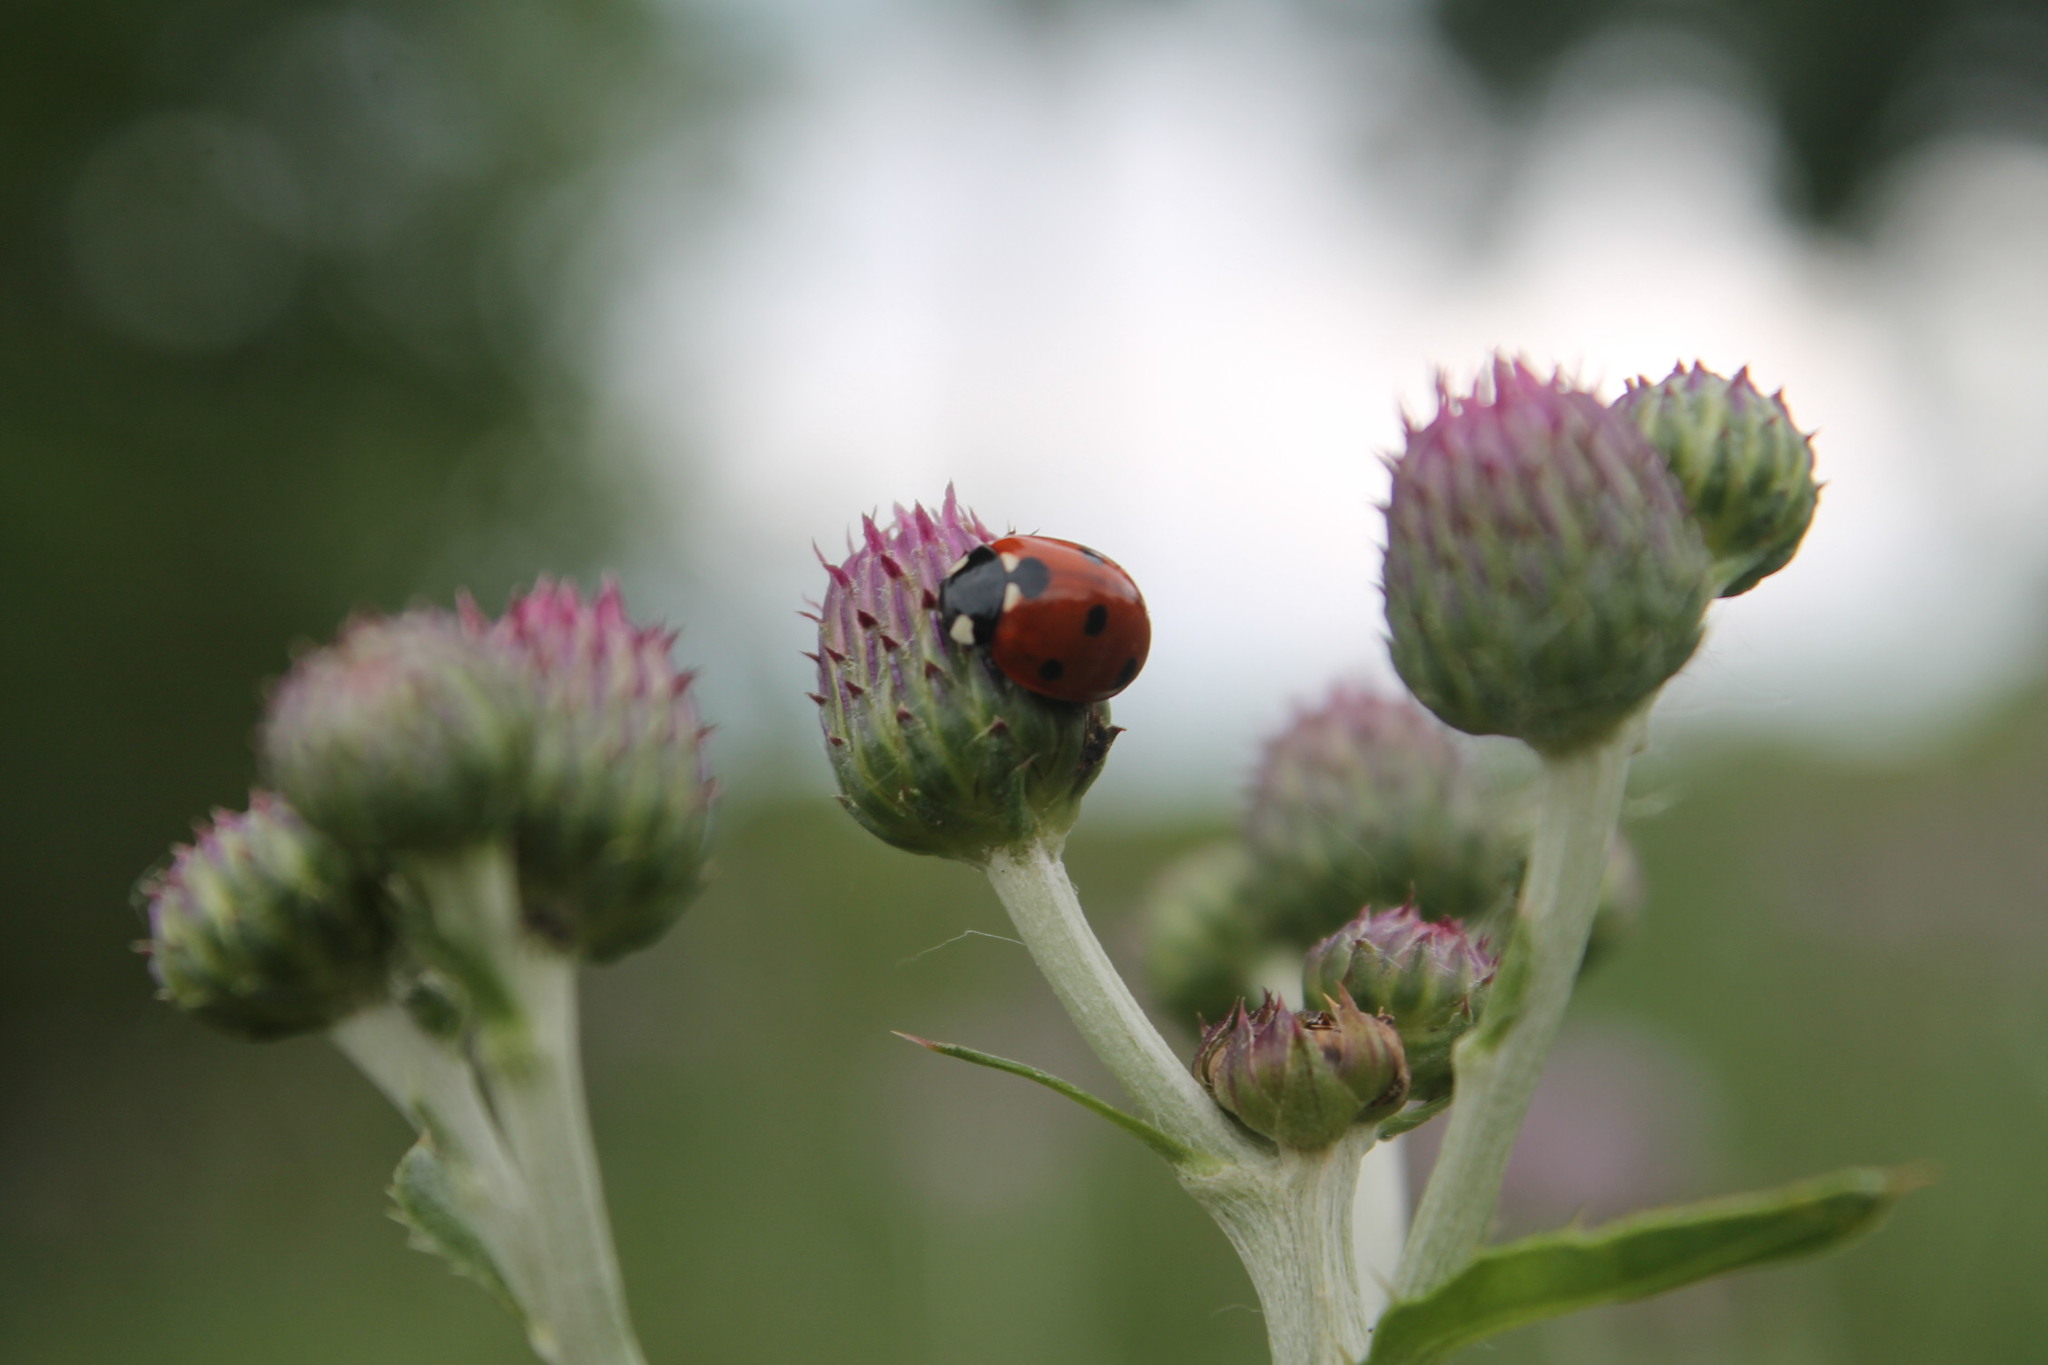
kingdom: Animalia
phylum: Arthropoda
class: Insecta
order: Coleoptera
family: Coccinellidae
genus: Coccinella
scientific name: Coccinella septempunctata
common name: Sevenspotted lady beetle
